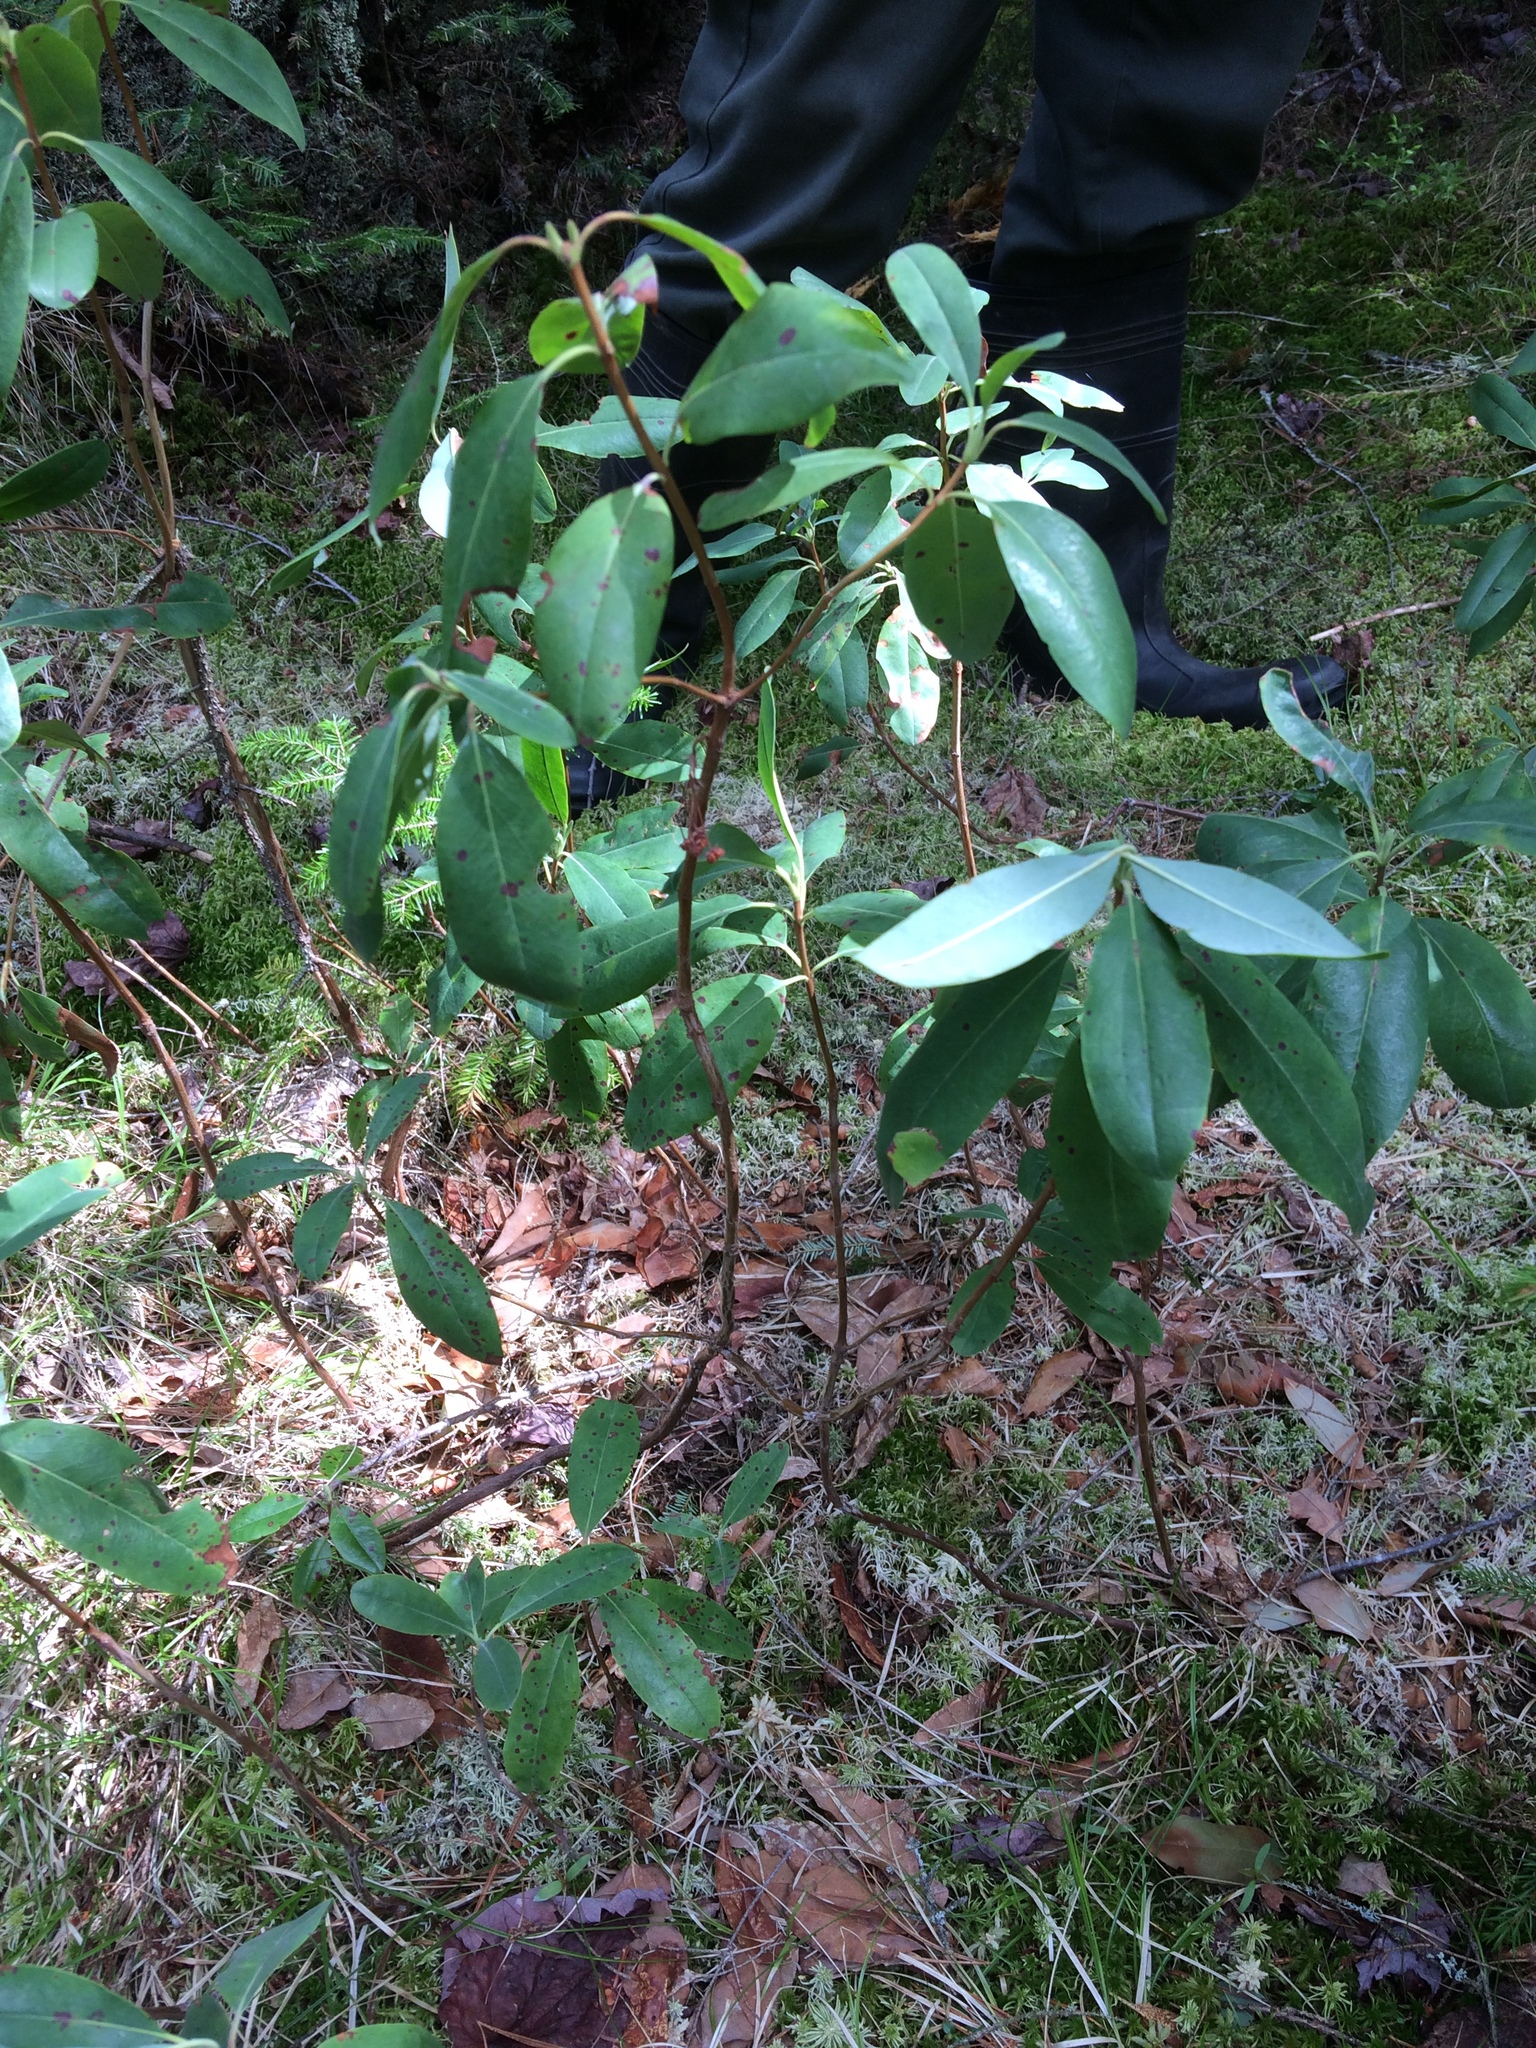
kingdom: Plantae
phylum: Tracheophyta
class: Magnoliopsida
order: Ericales
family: Ericaceae
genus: Kalmia
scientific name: Kalmia angustifolia
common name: Sheep-laurel
